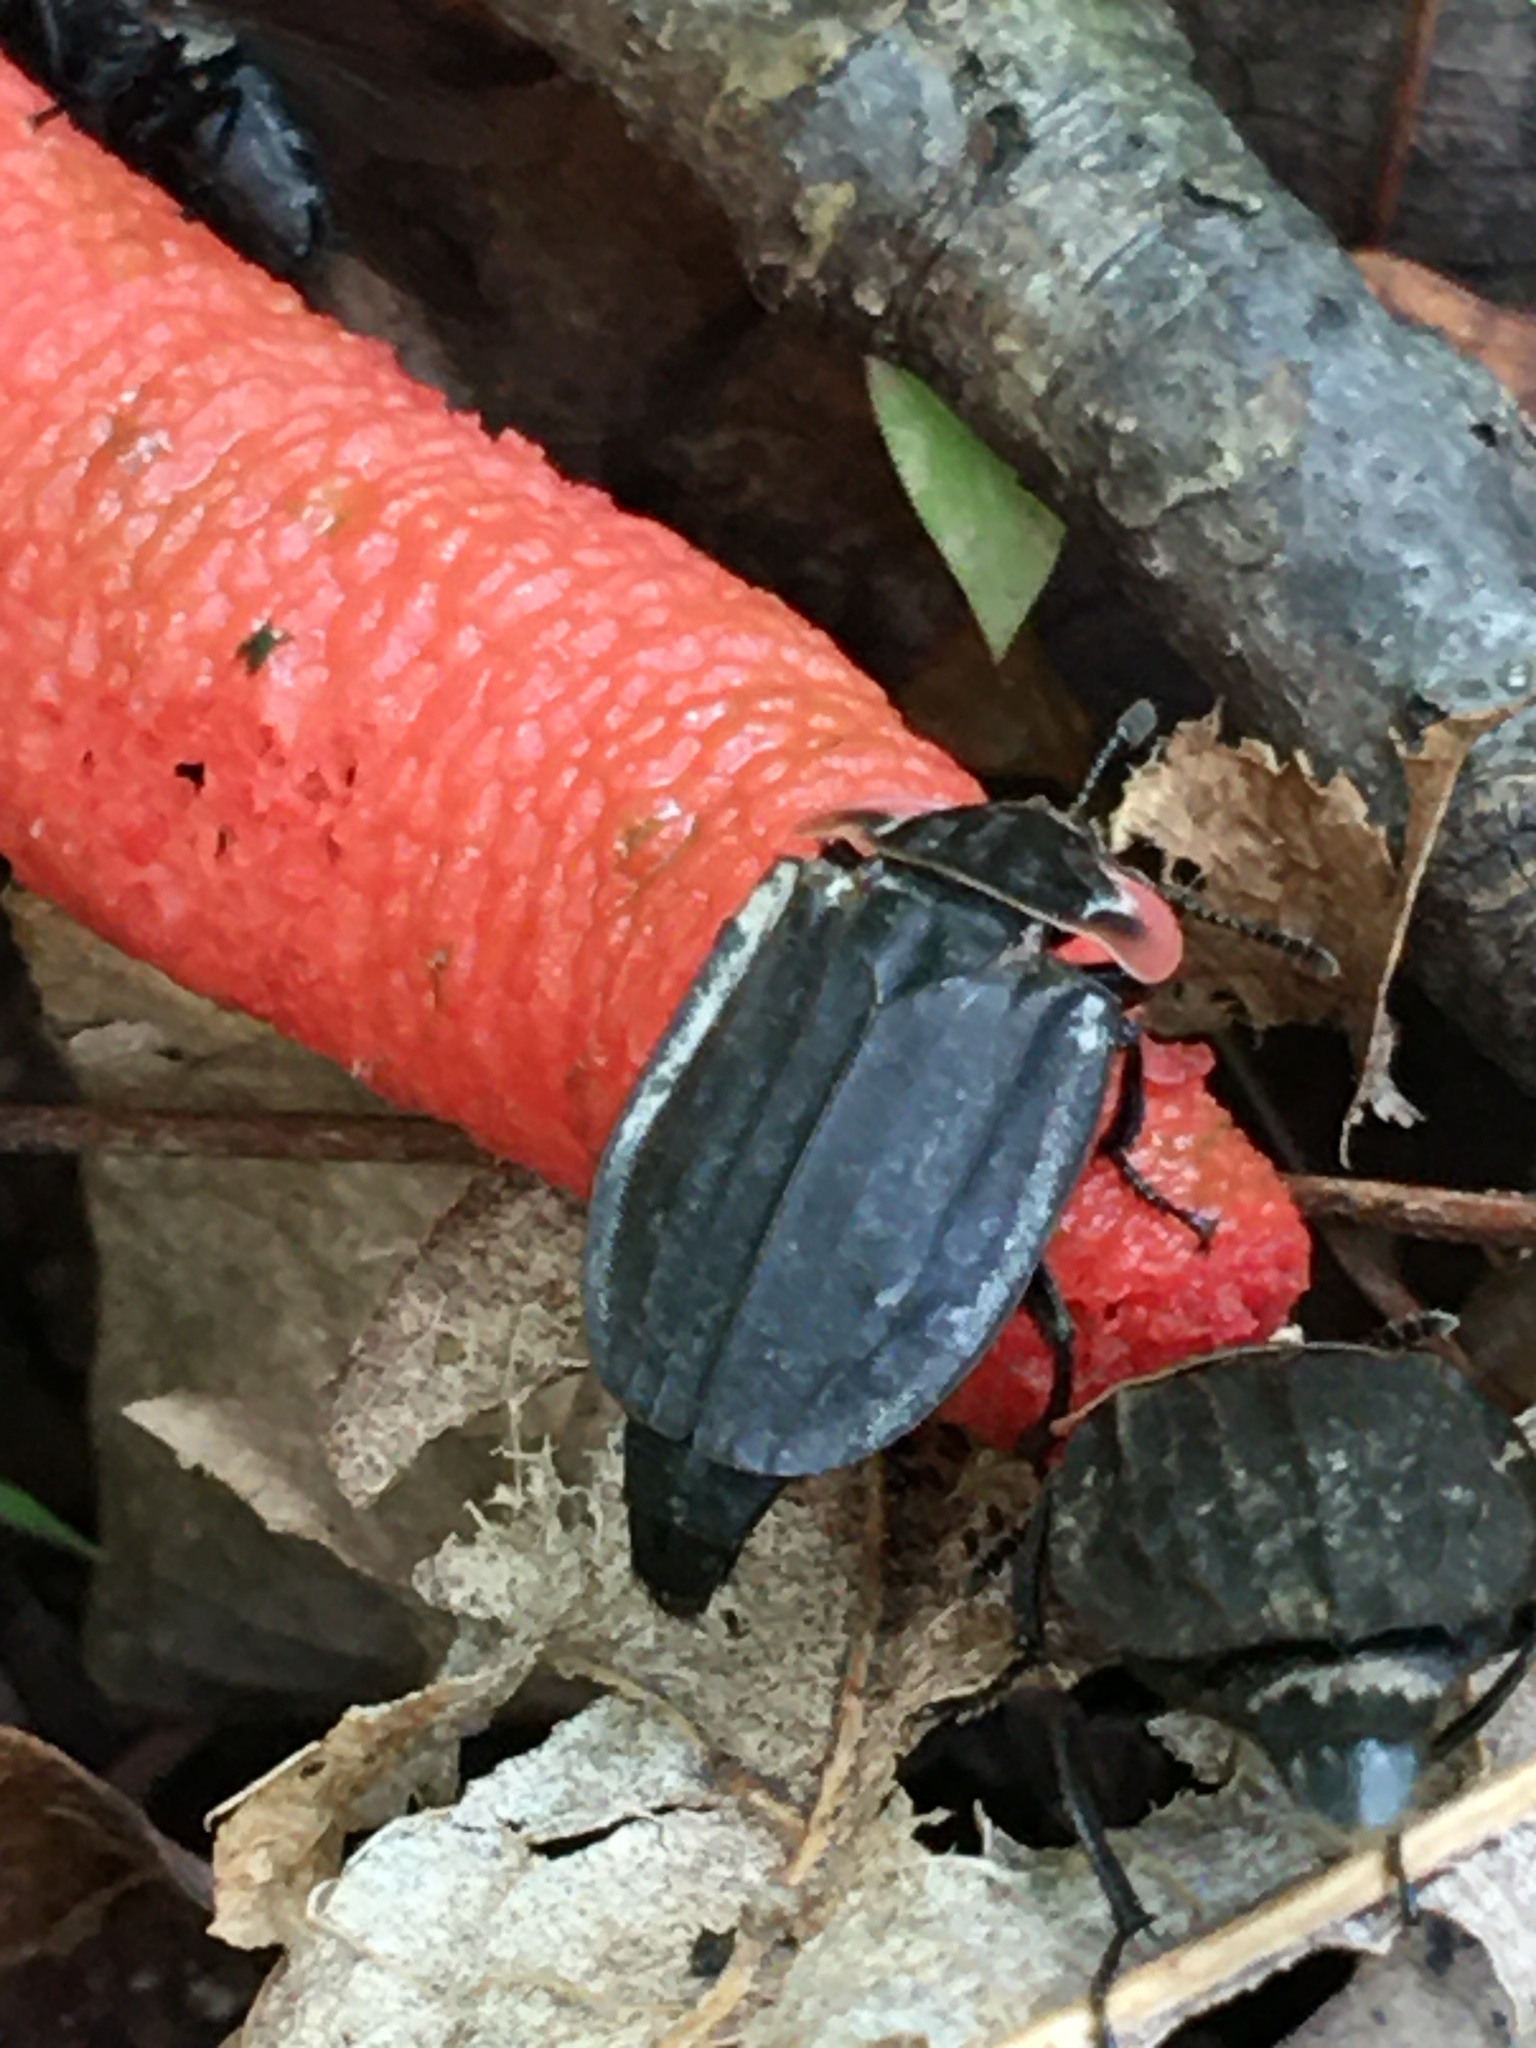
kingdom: Fungi
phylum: Basidiomycota
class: Agaricomycetes
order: Phallales
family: Phallaceae
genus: Mutinus
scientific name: Mutinus elegans
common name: Devil's dipstick
